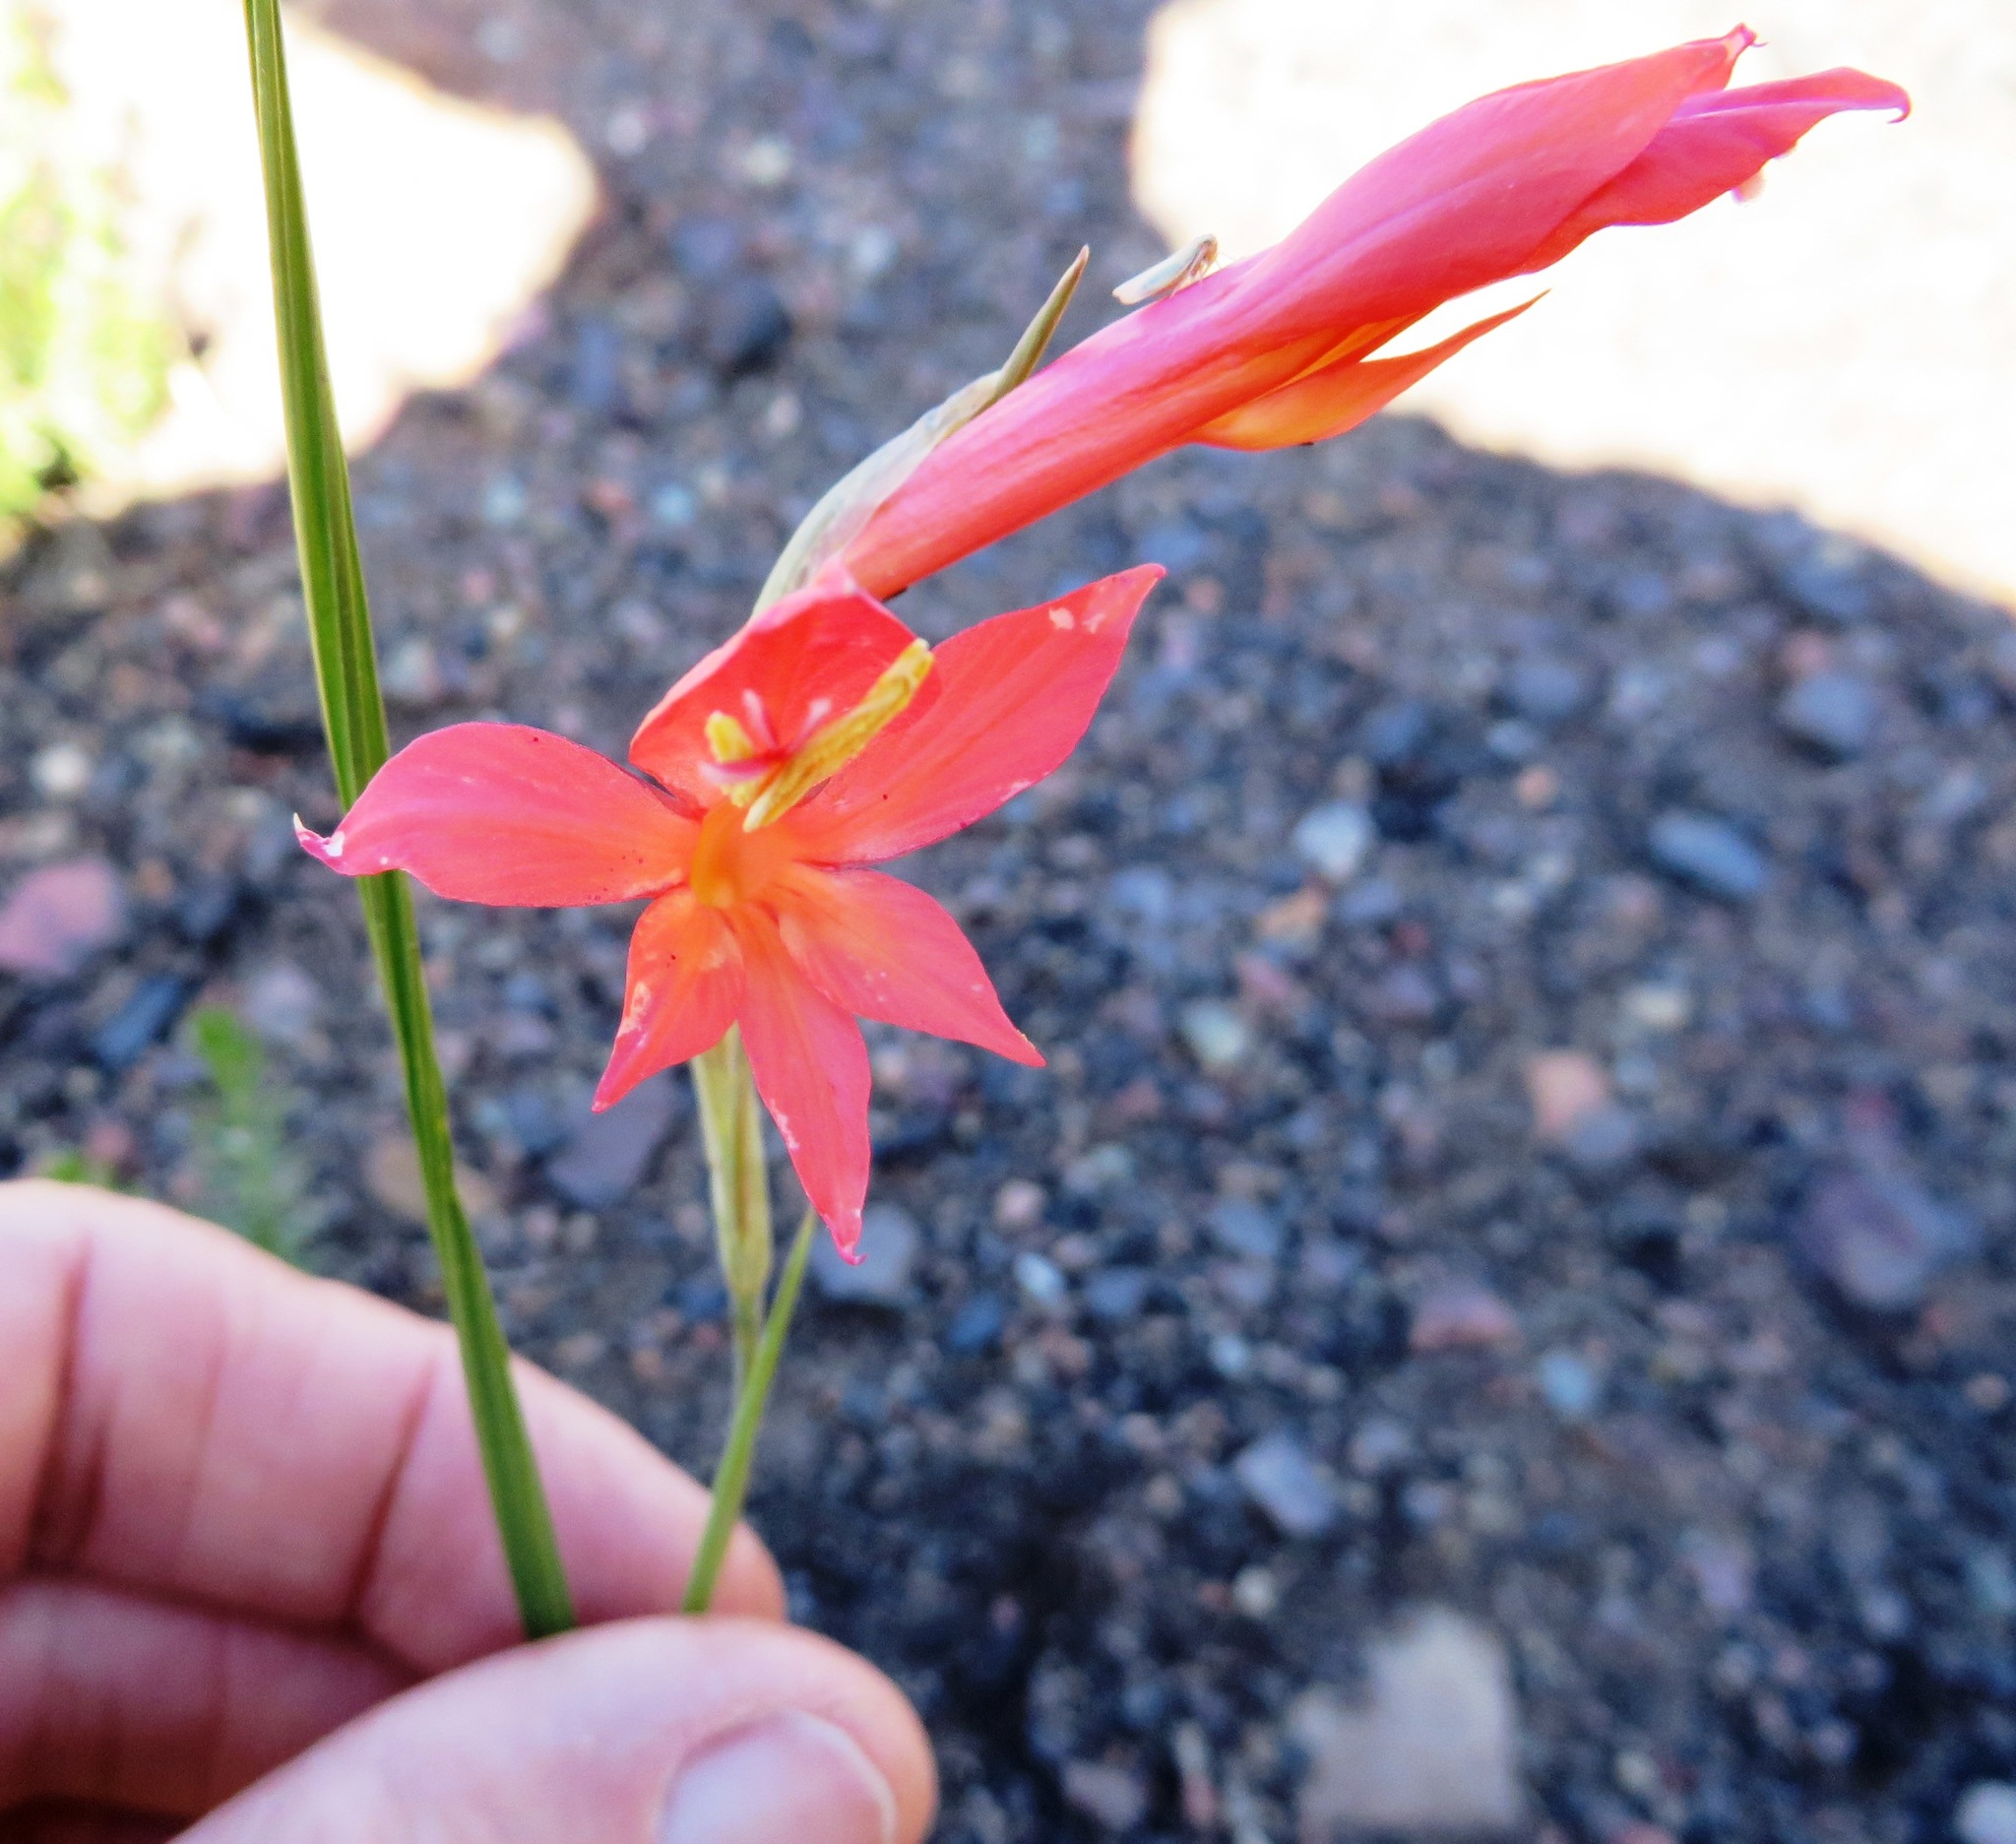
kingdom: Plantae
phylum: Tracheophyta
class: Liliopsida
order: Asparagales
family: Iridaceae
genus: Gladiolus
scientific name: Gladiolus quadrangularis
